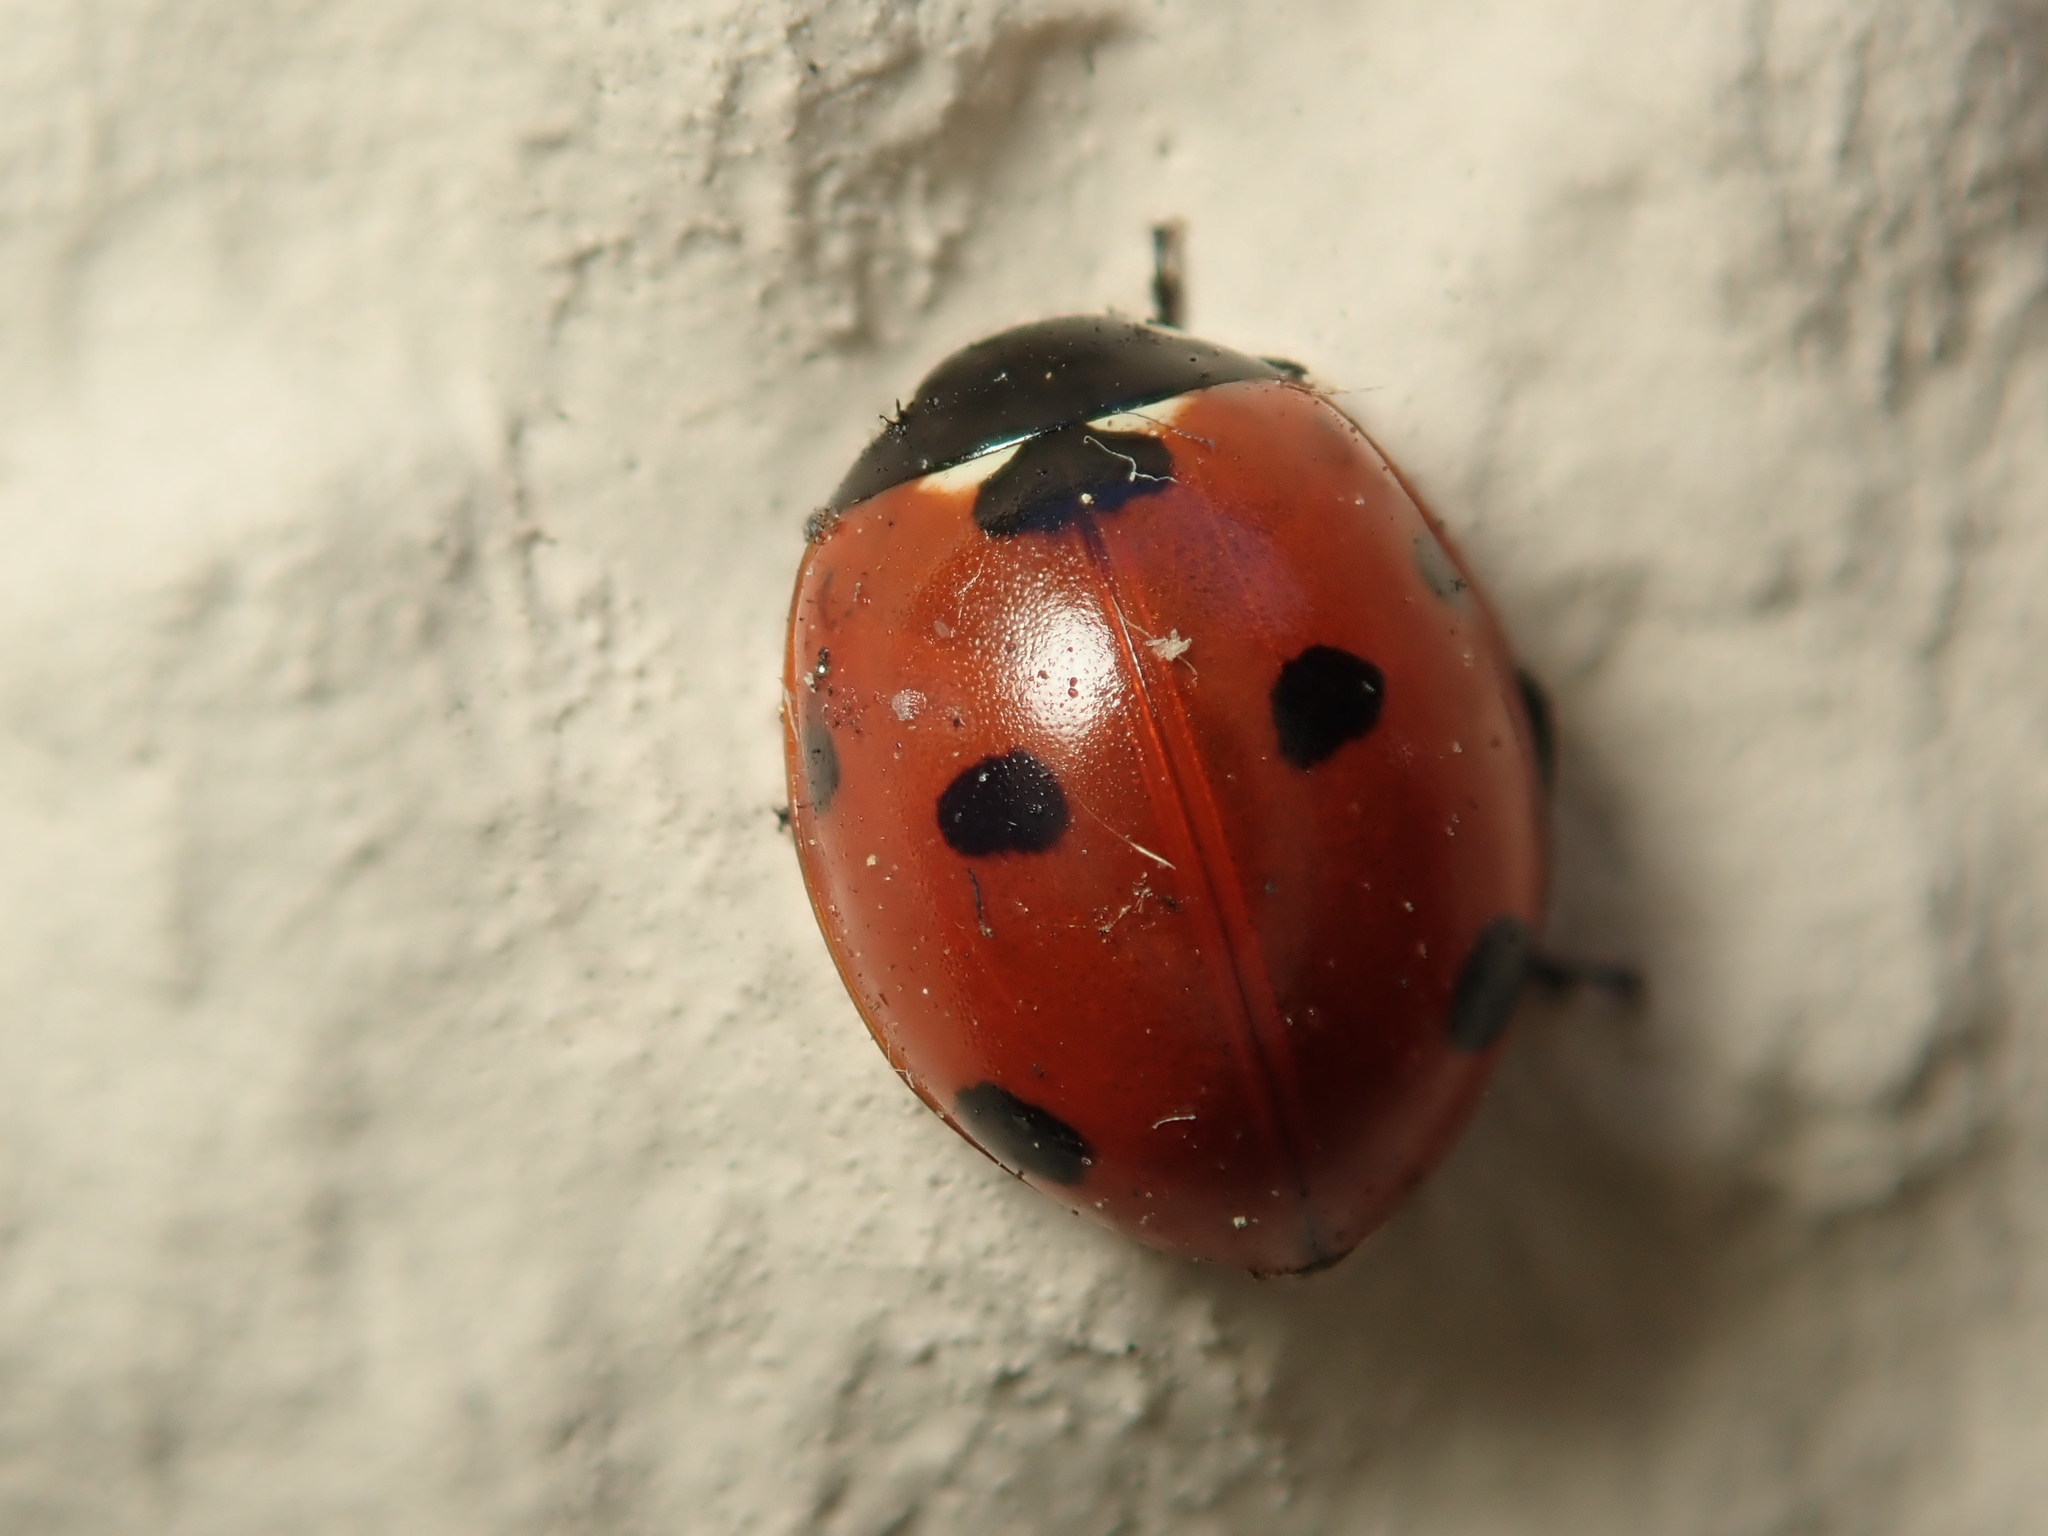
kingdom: Animalia
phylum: Arthropoda
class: Insecta
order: Coleoptera
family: Coccinellidae
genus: Coccinella
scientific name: Coccinella septempunctata
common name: Sevenspotted lady beetle
